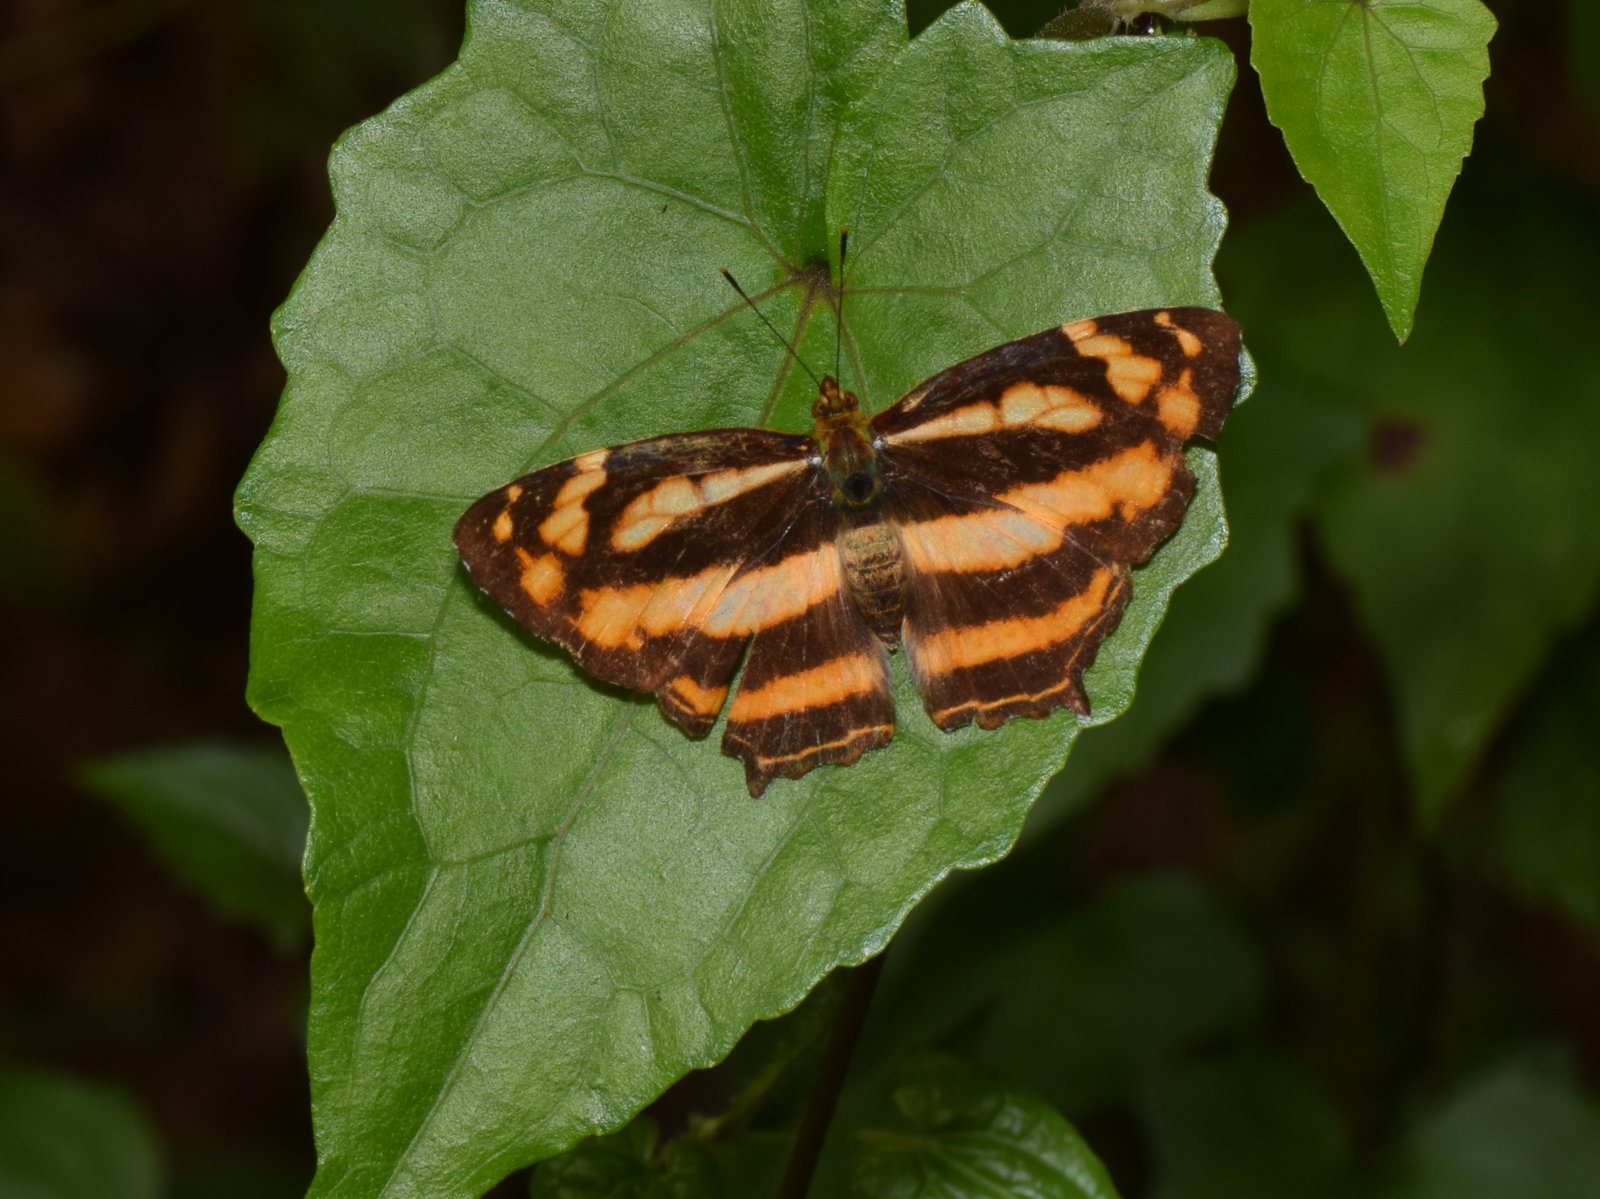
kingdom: Animalia
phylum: Arthropoda
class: Insecta
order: Lepidoptera
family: Nymphalidae
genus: Symbrenthia
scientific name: Symbrenthia hypselis
